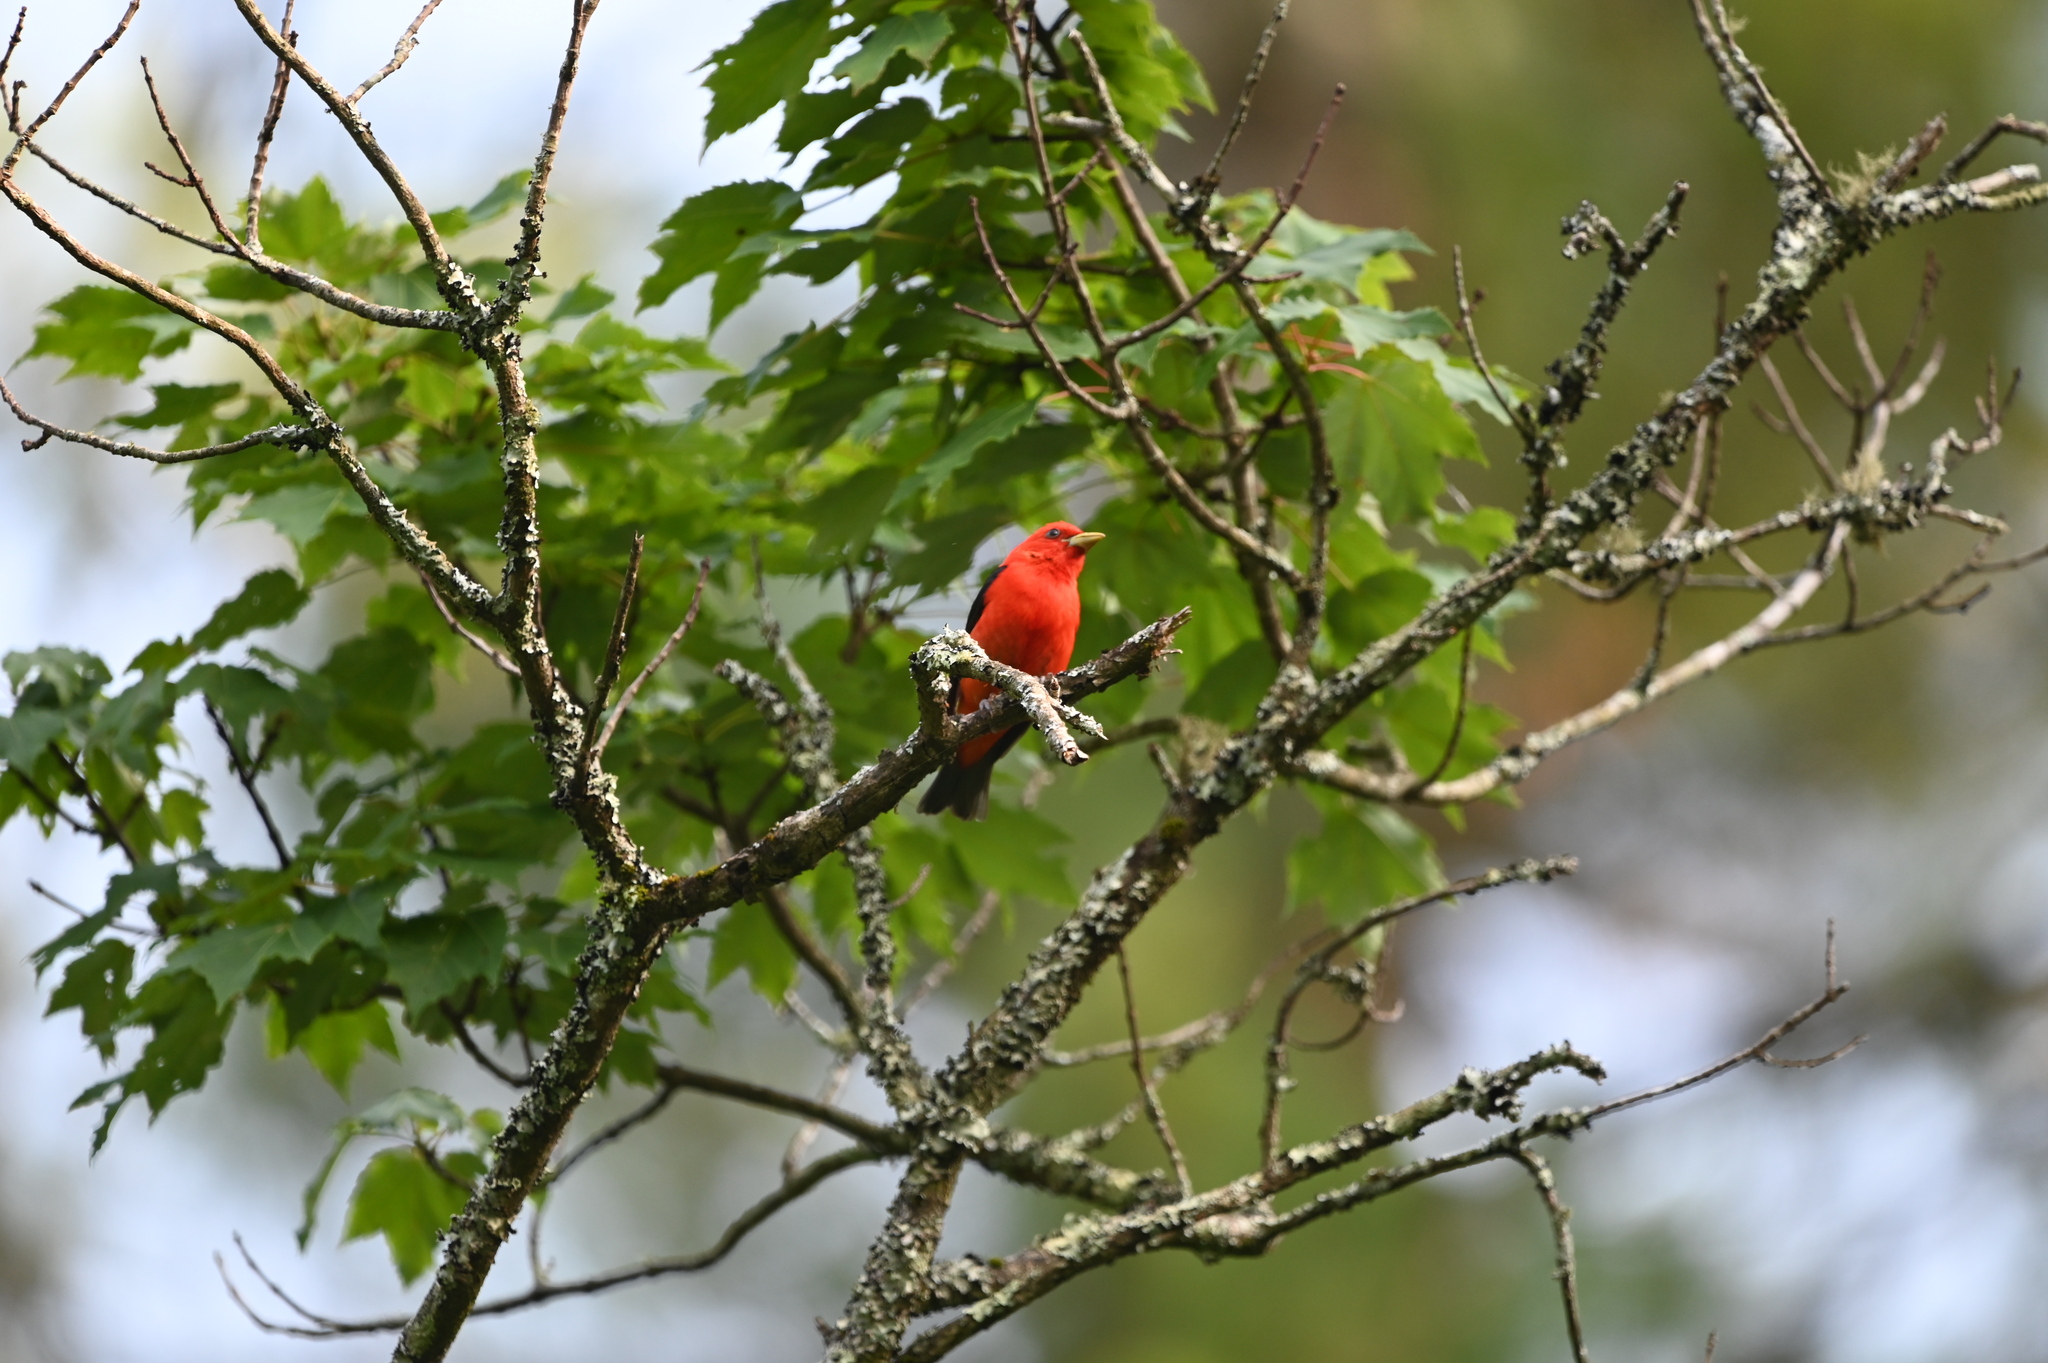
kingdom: Animalia
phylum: Chordata
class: Aves
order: Passeriformes
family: Cardinalidae
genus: Piranga
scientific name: Piranga olivacea
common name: Scarlet tanager
